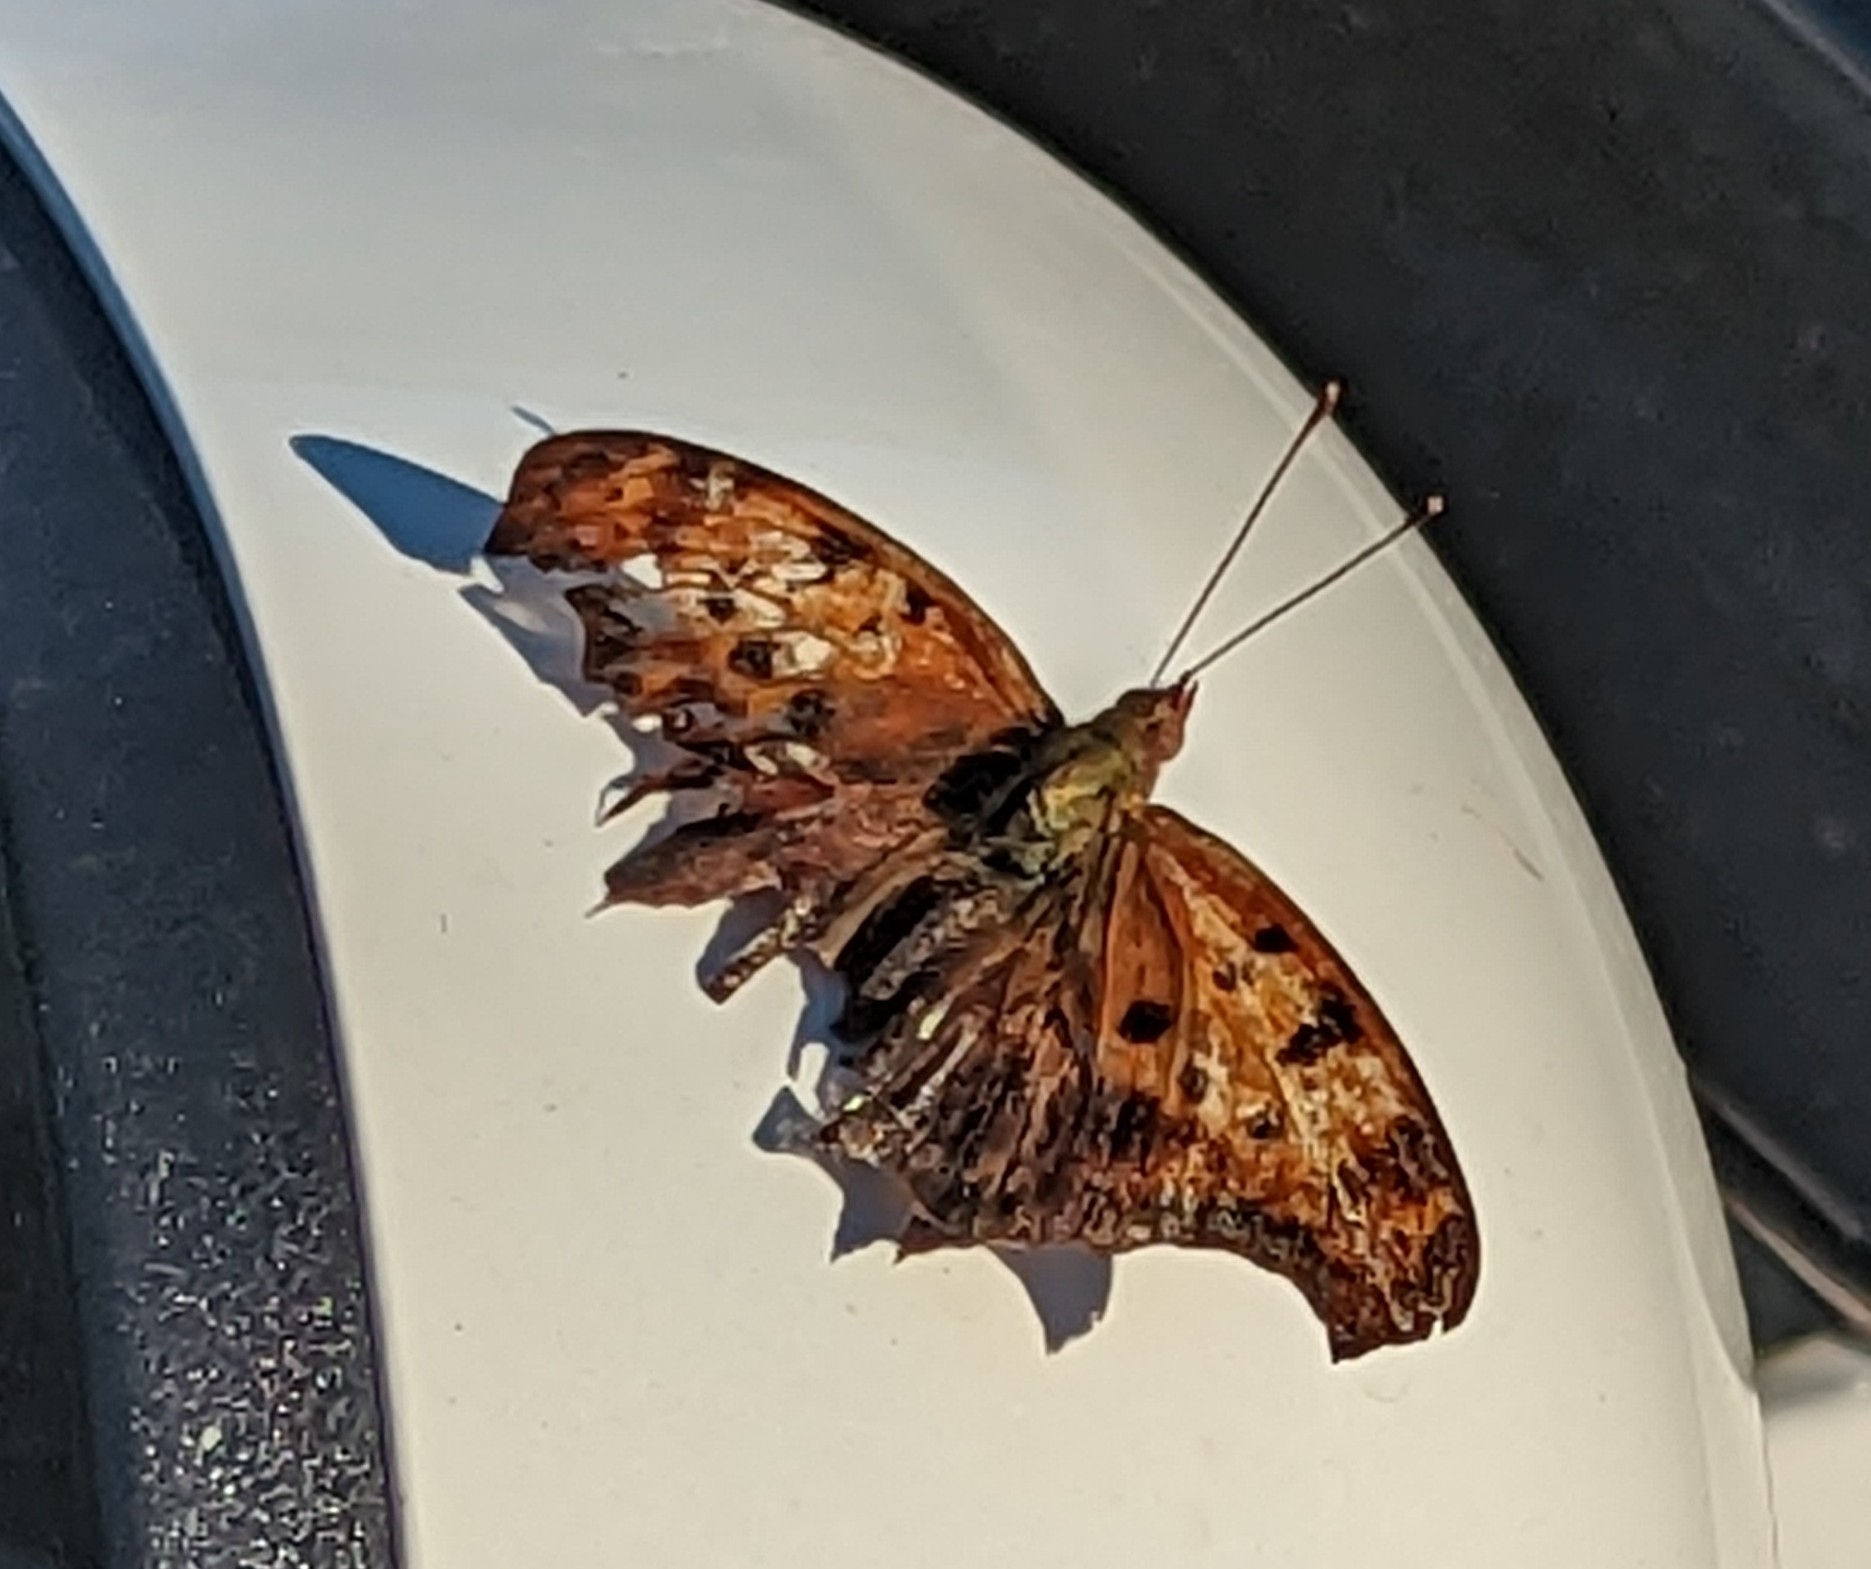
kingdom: Animalia
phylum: Arthropoda
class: Insecta
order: Lepidoptera
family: Nymphalidae
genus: Polygonia
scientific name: Polygonia interrogationis
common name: Question mark
